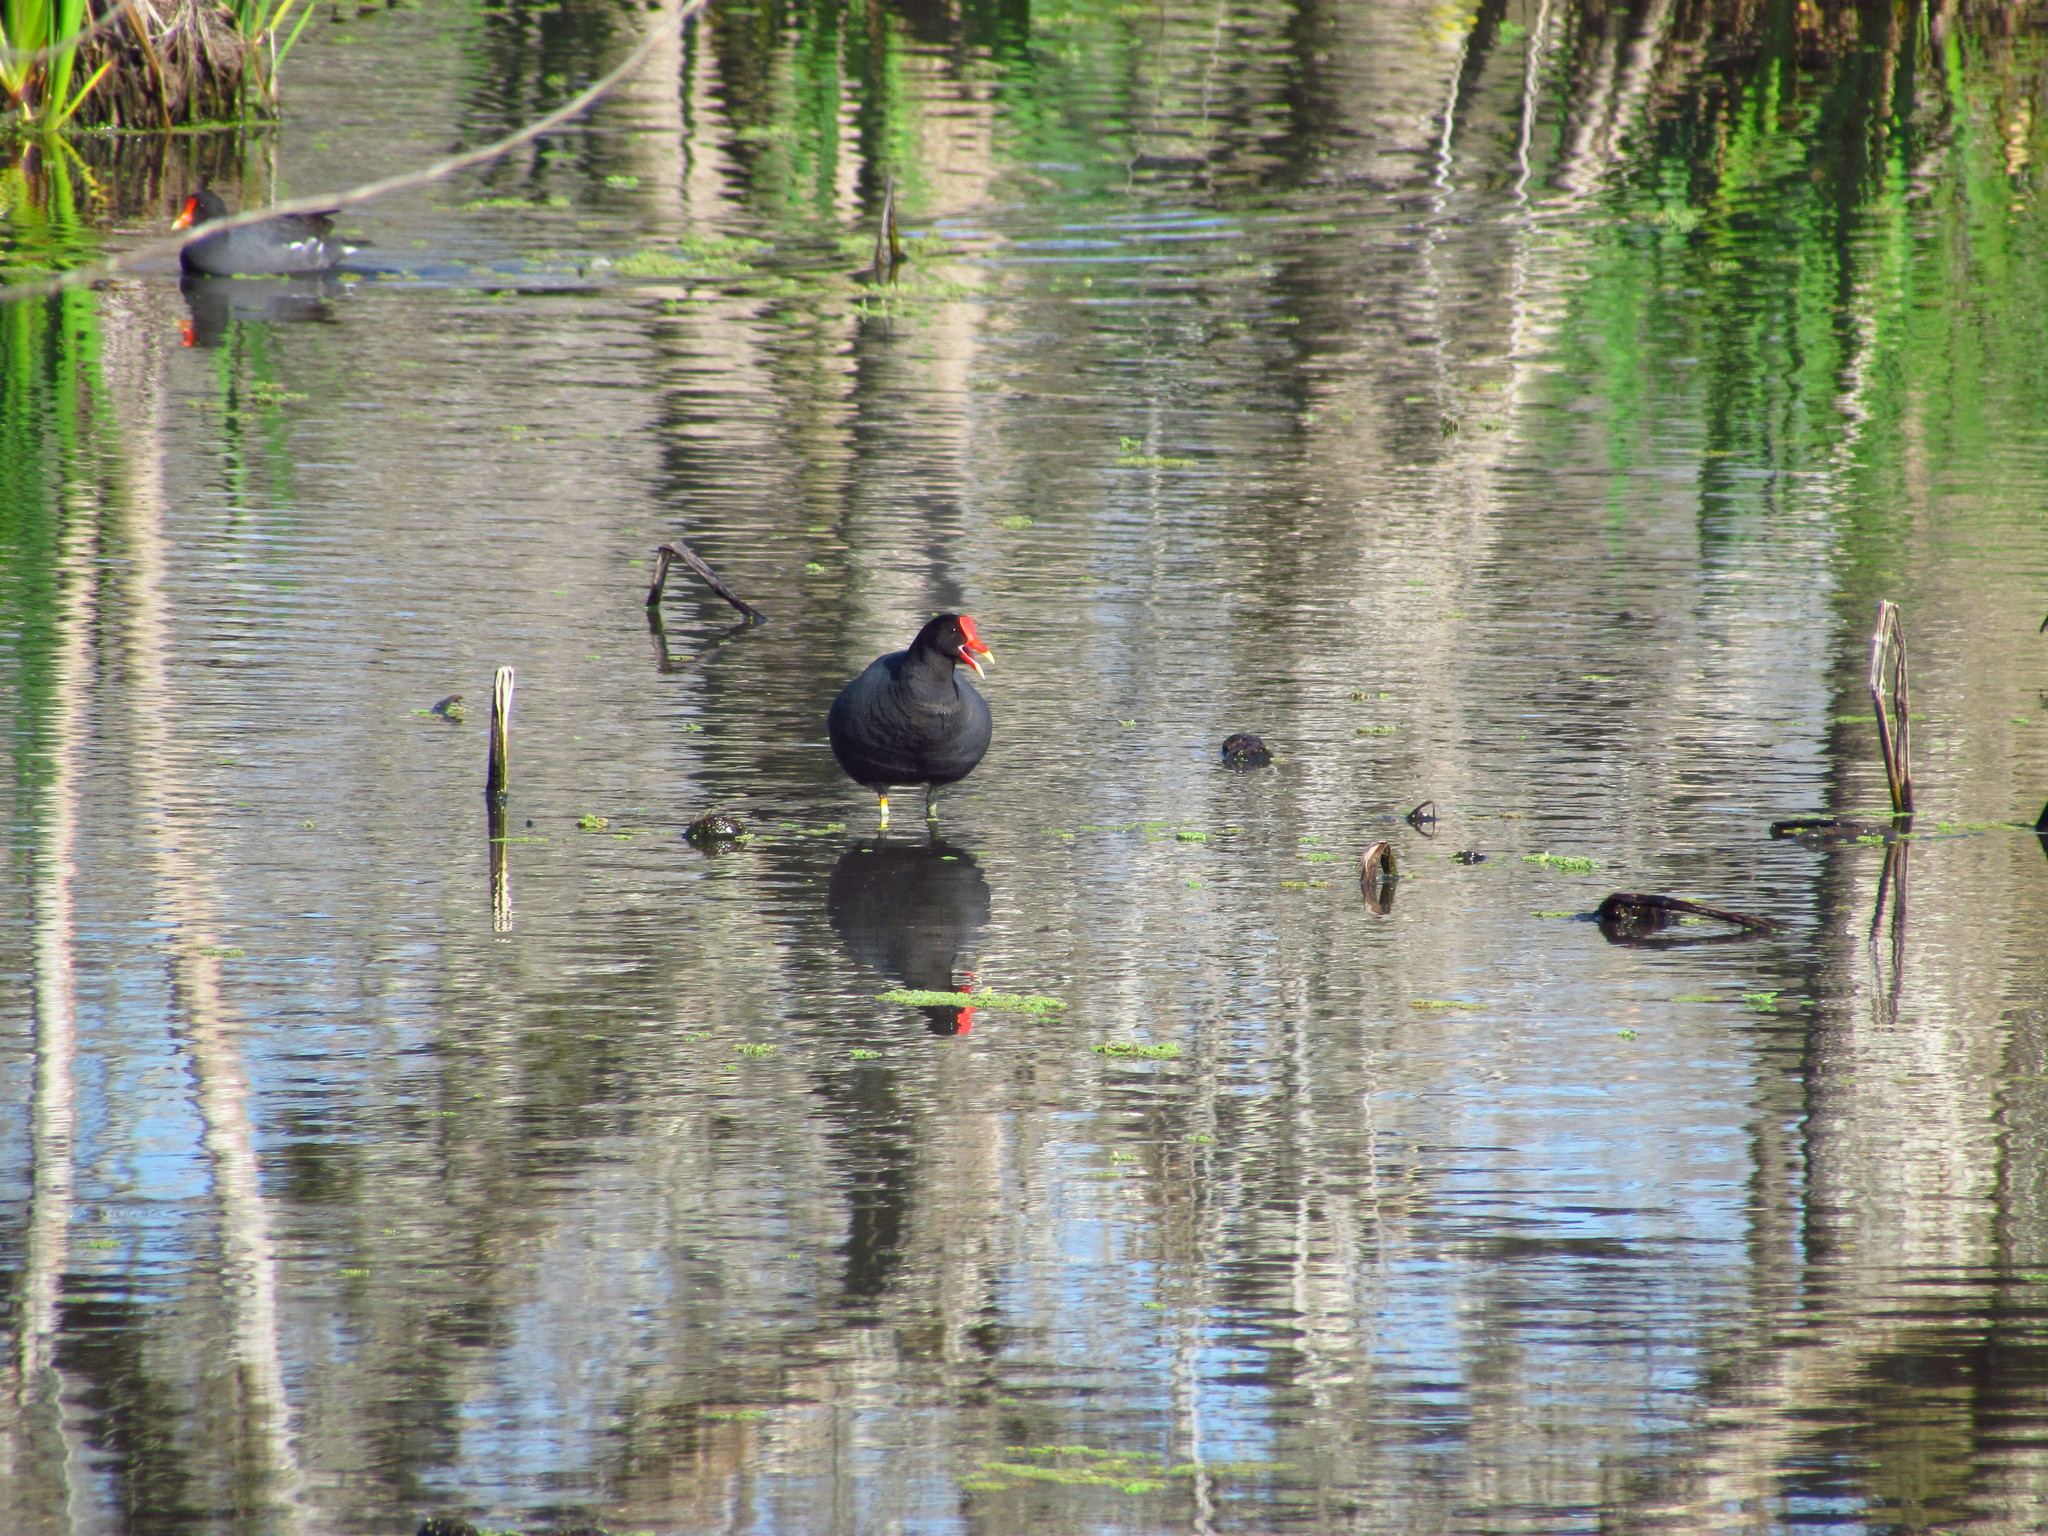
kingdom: Animalia
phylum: Chordata
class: Aves
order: Gruiformes
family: Rallidae
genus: Gallinula
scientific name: Gallinula chloropus
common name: Common moorhen
